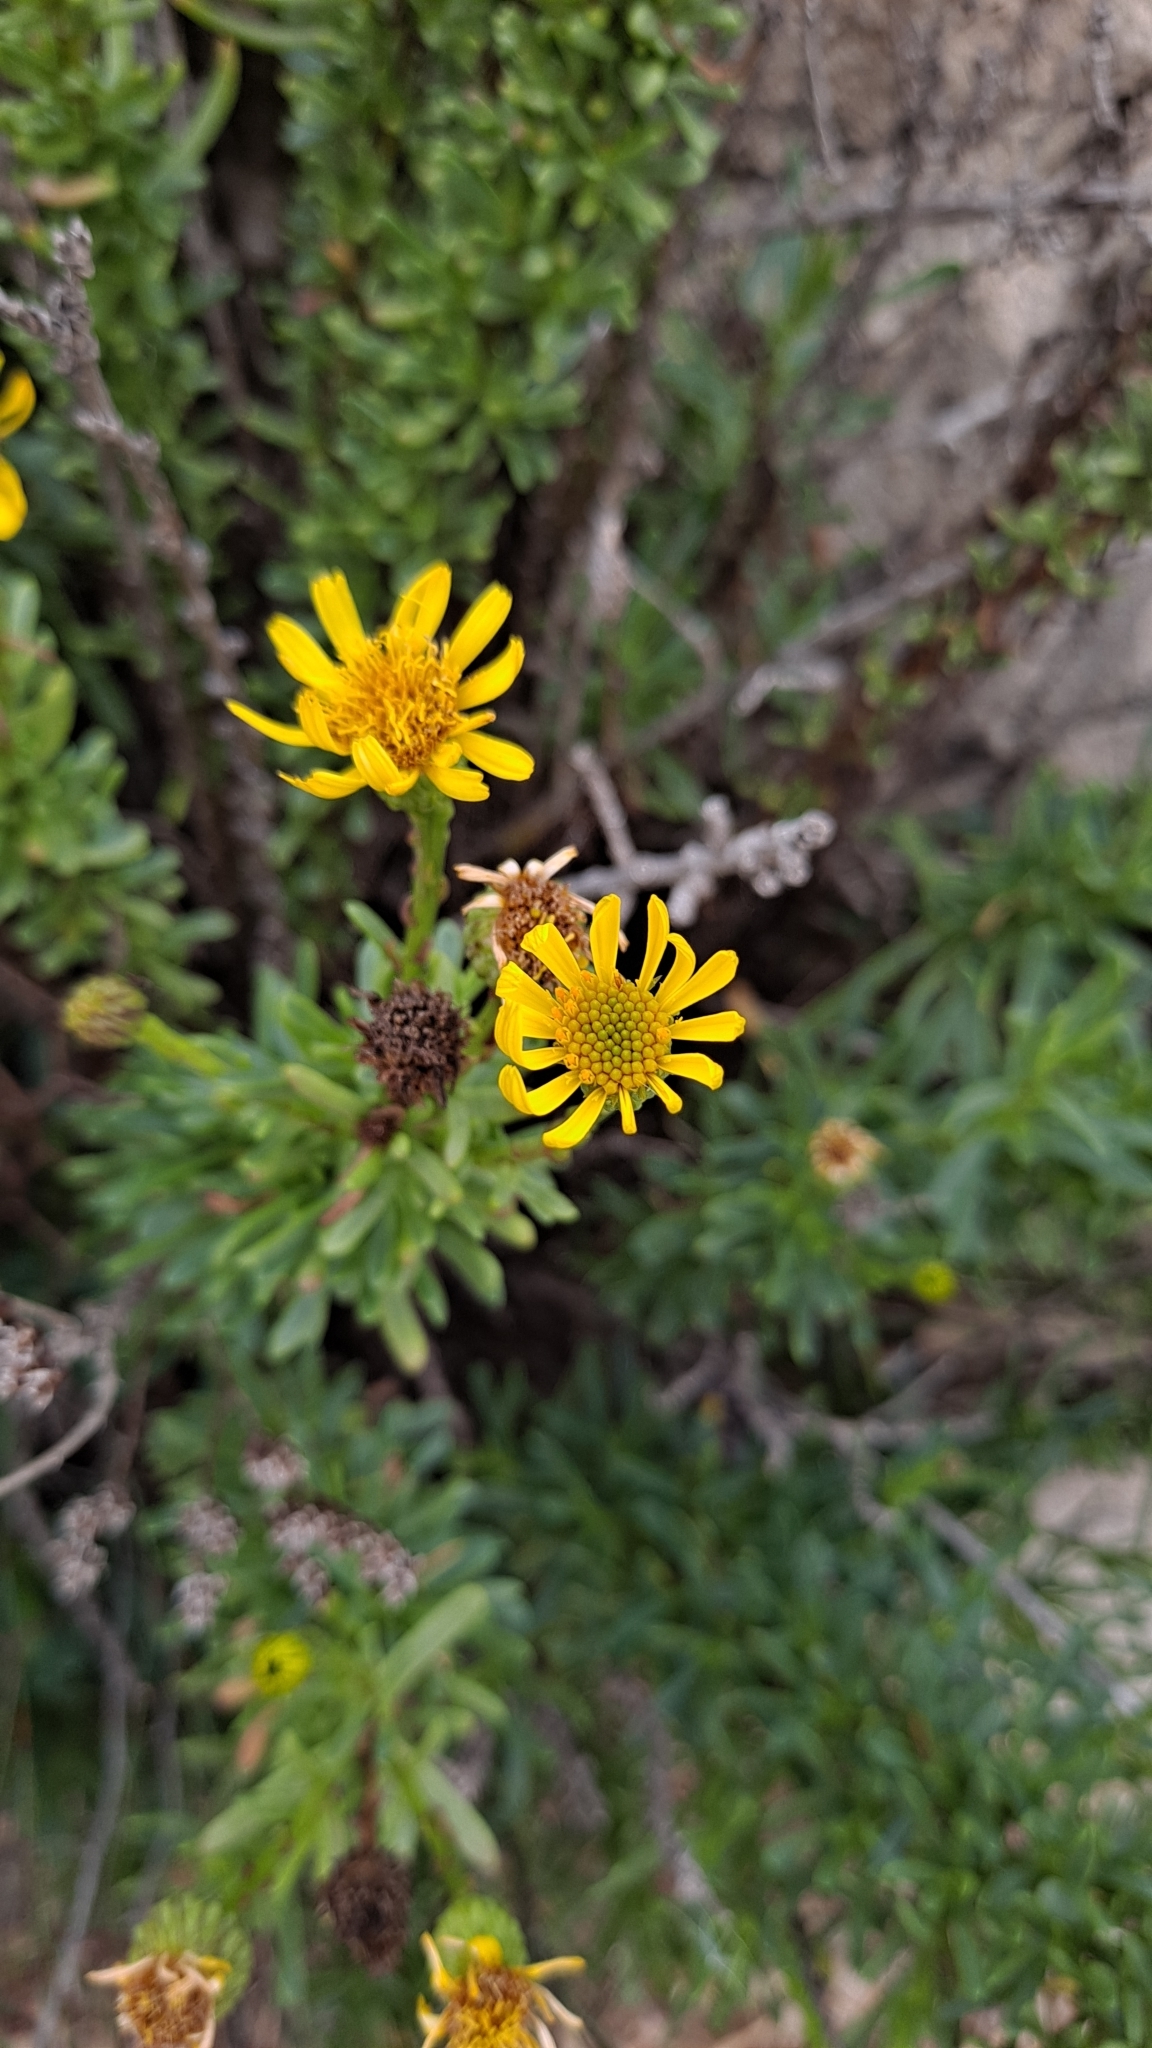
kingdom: Plantae
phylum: Tracheophyta
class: Magnoliopsida
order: Asterales
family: Asteraceae
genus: Limbarda
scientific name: Limbarda crithmoides
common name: Golden samphire
